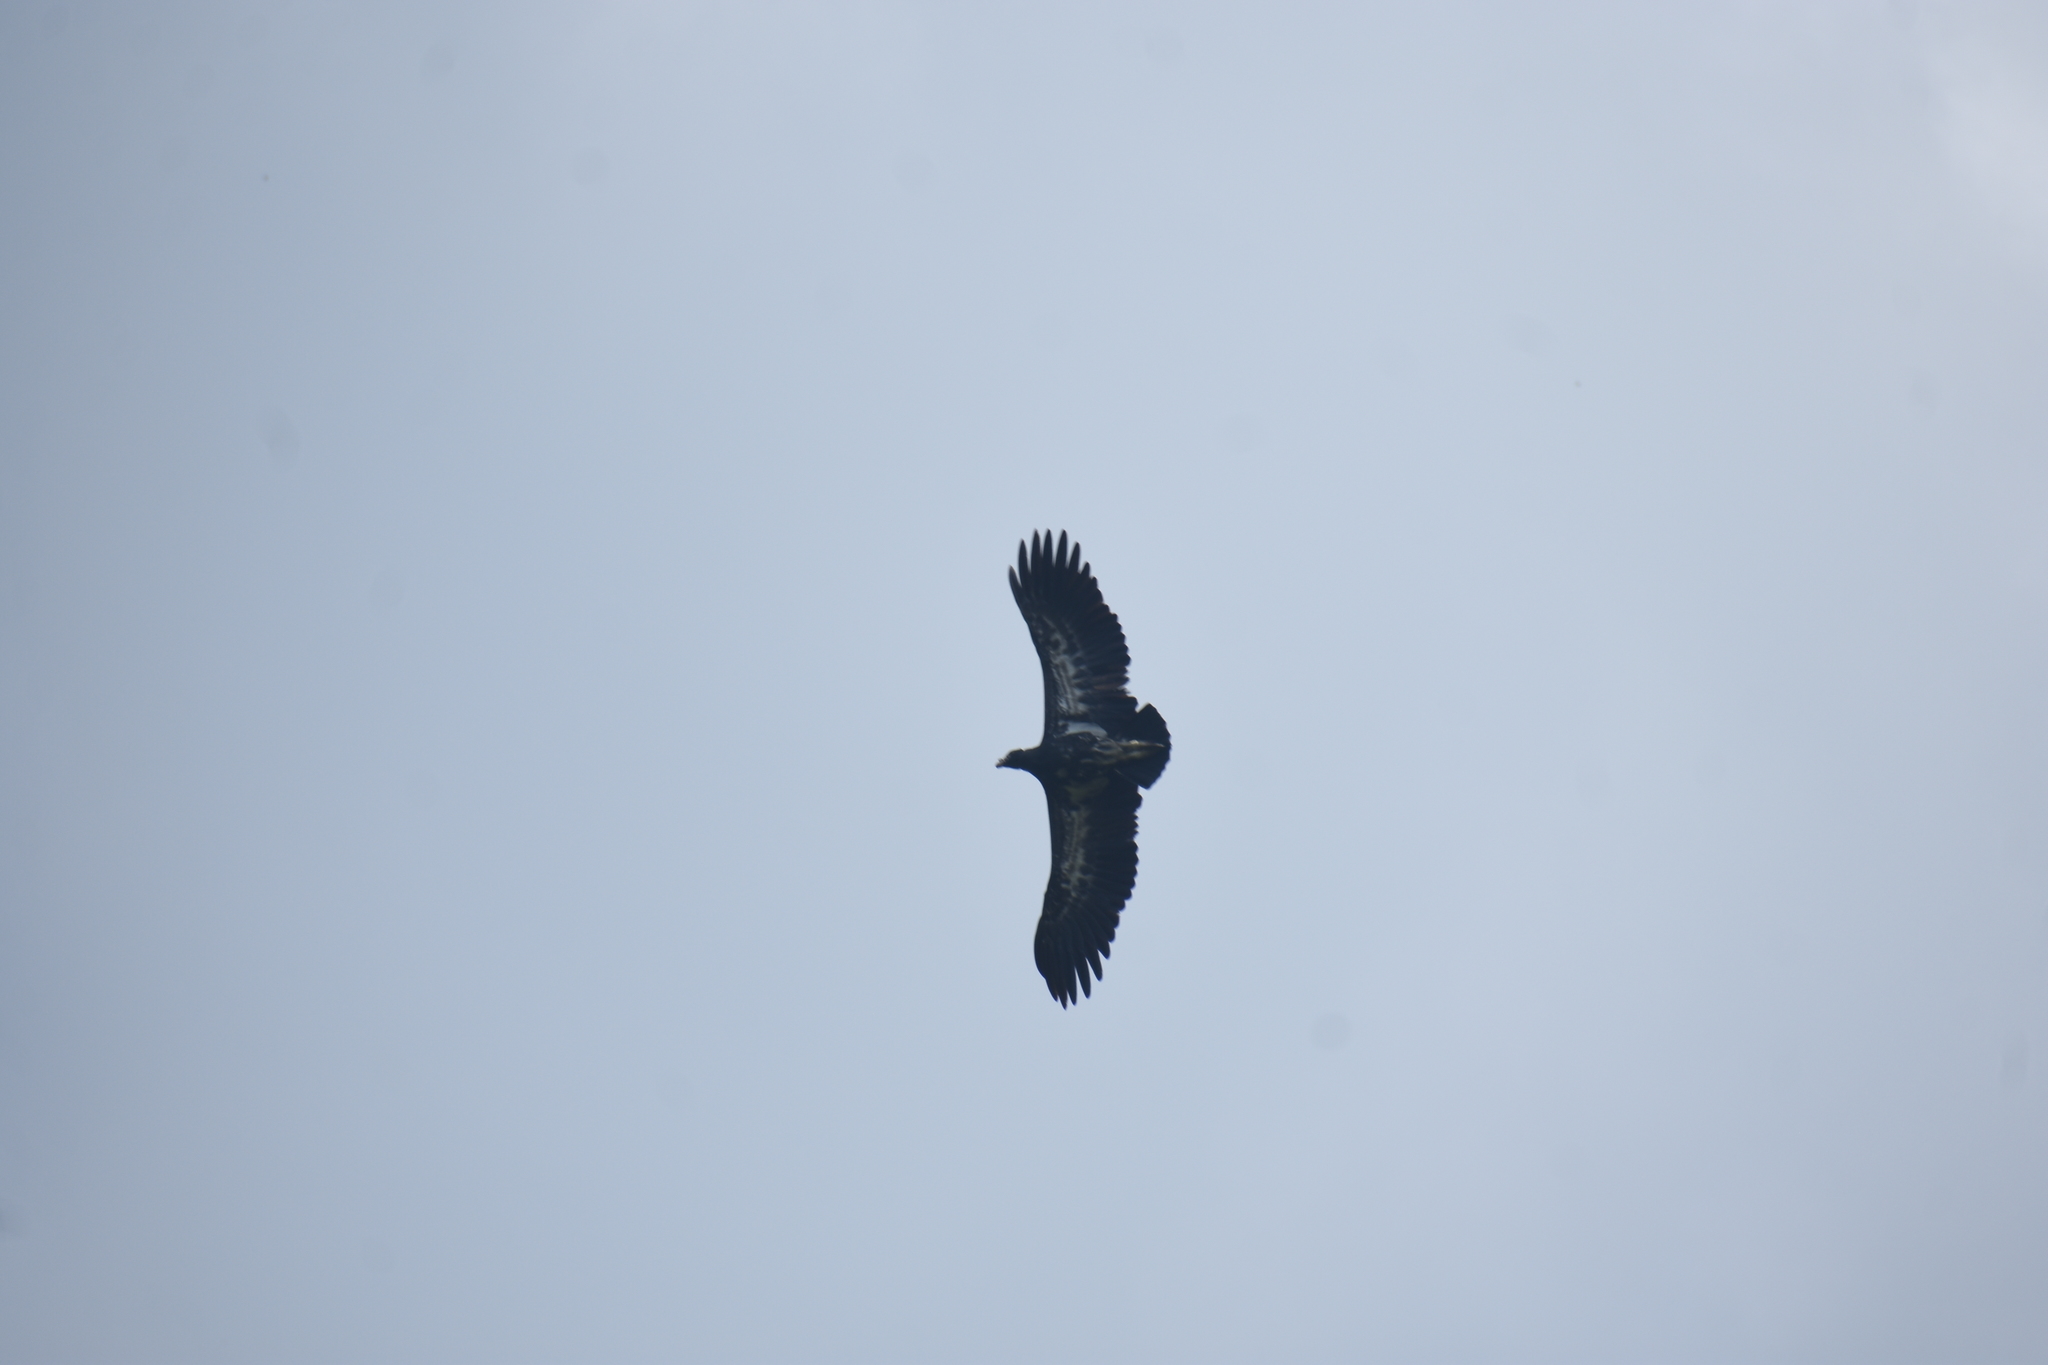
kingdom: Animalia
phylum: Chordata
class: Aves
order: Accipitriformes
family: Cathartidae
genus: Sarcoramphus
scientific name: Sarcoramphus papa
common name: King vulture
